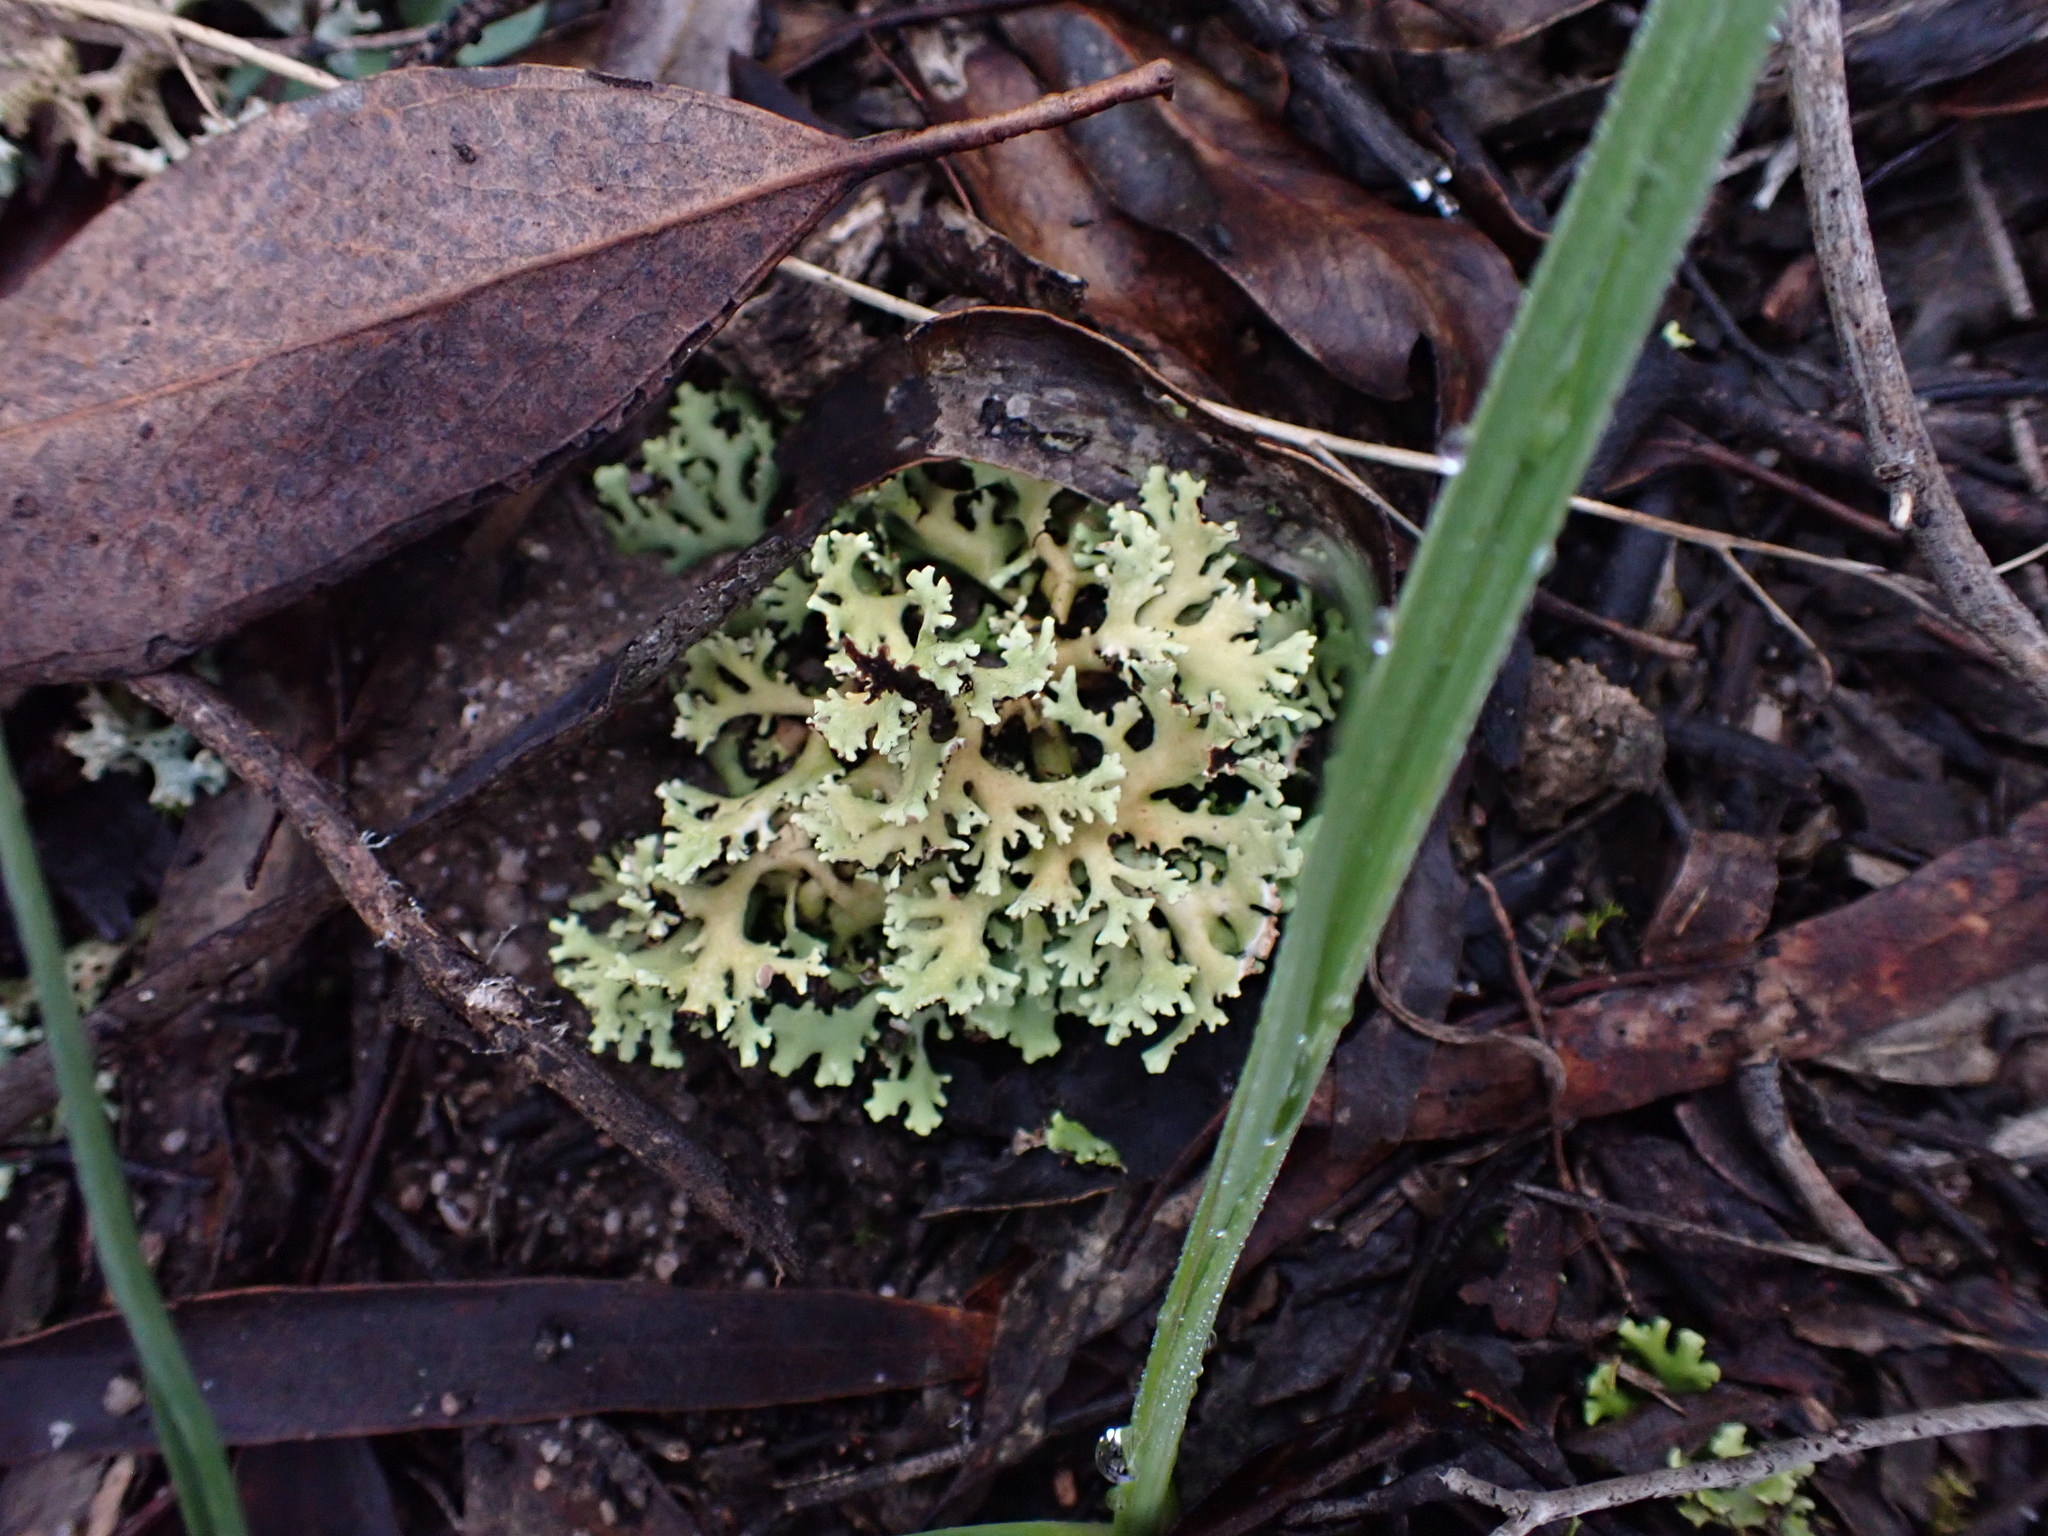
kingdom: Fungi
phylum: Ascomycota
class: Lecanoromycetes
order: Lecanorales
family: Cladoniaceae
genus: Cladia
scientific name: Cladia muelleri
